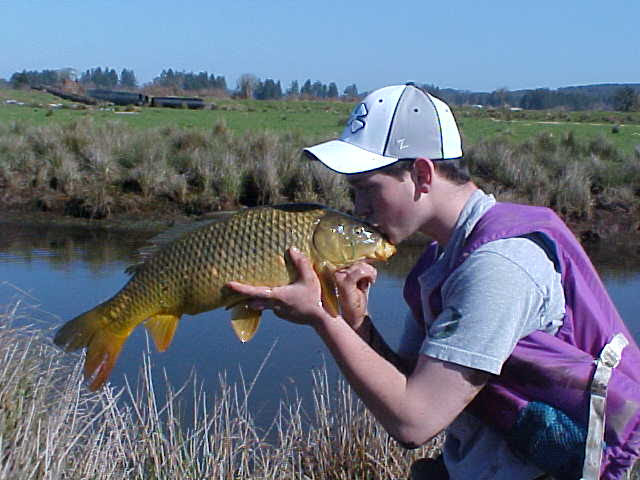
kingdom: Animalia
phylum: Chordata
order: Cypriniformes
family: Cyprinidae
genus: Cyprinus
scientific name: Cyprinus carpio
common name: Common carp
